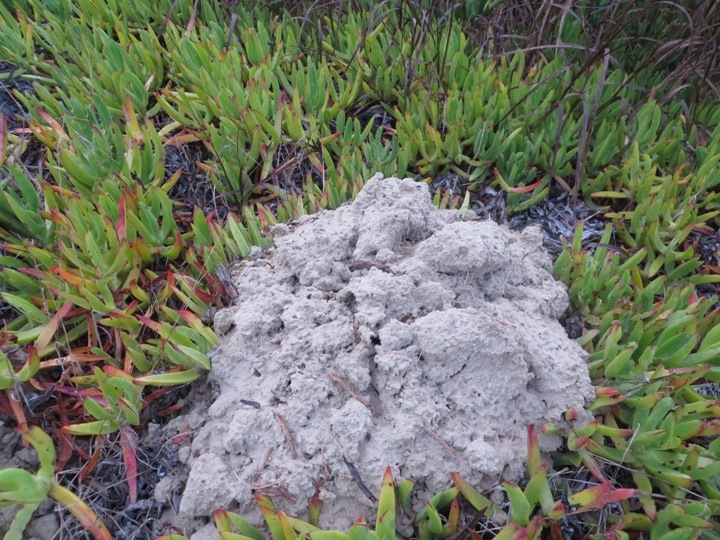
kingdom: Animalia
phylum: Chordata
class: Mammalia
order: Rodentia
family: Bathyergidae
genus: Bathyergus
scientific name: Bathyergus suillus
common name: Cape dune mole rat
